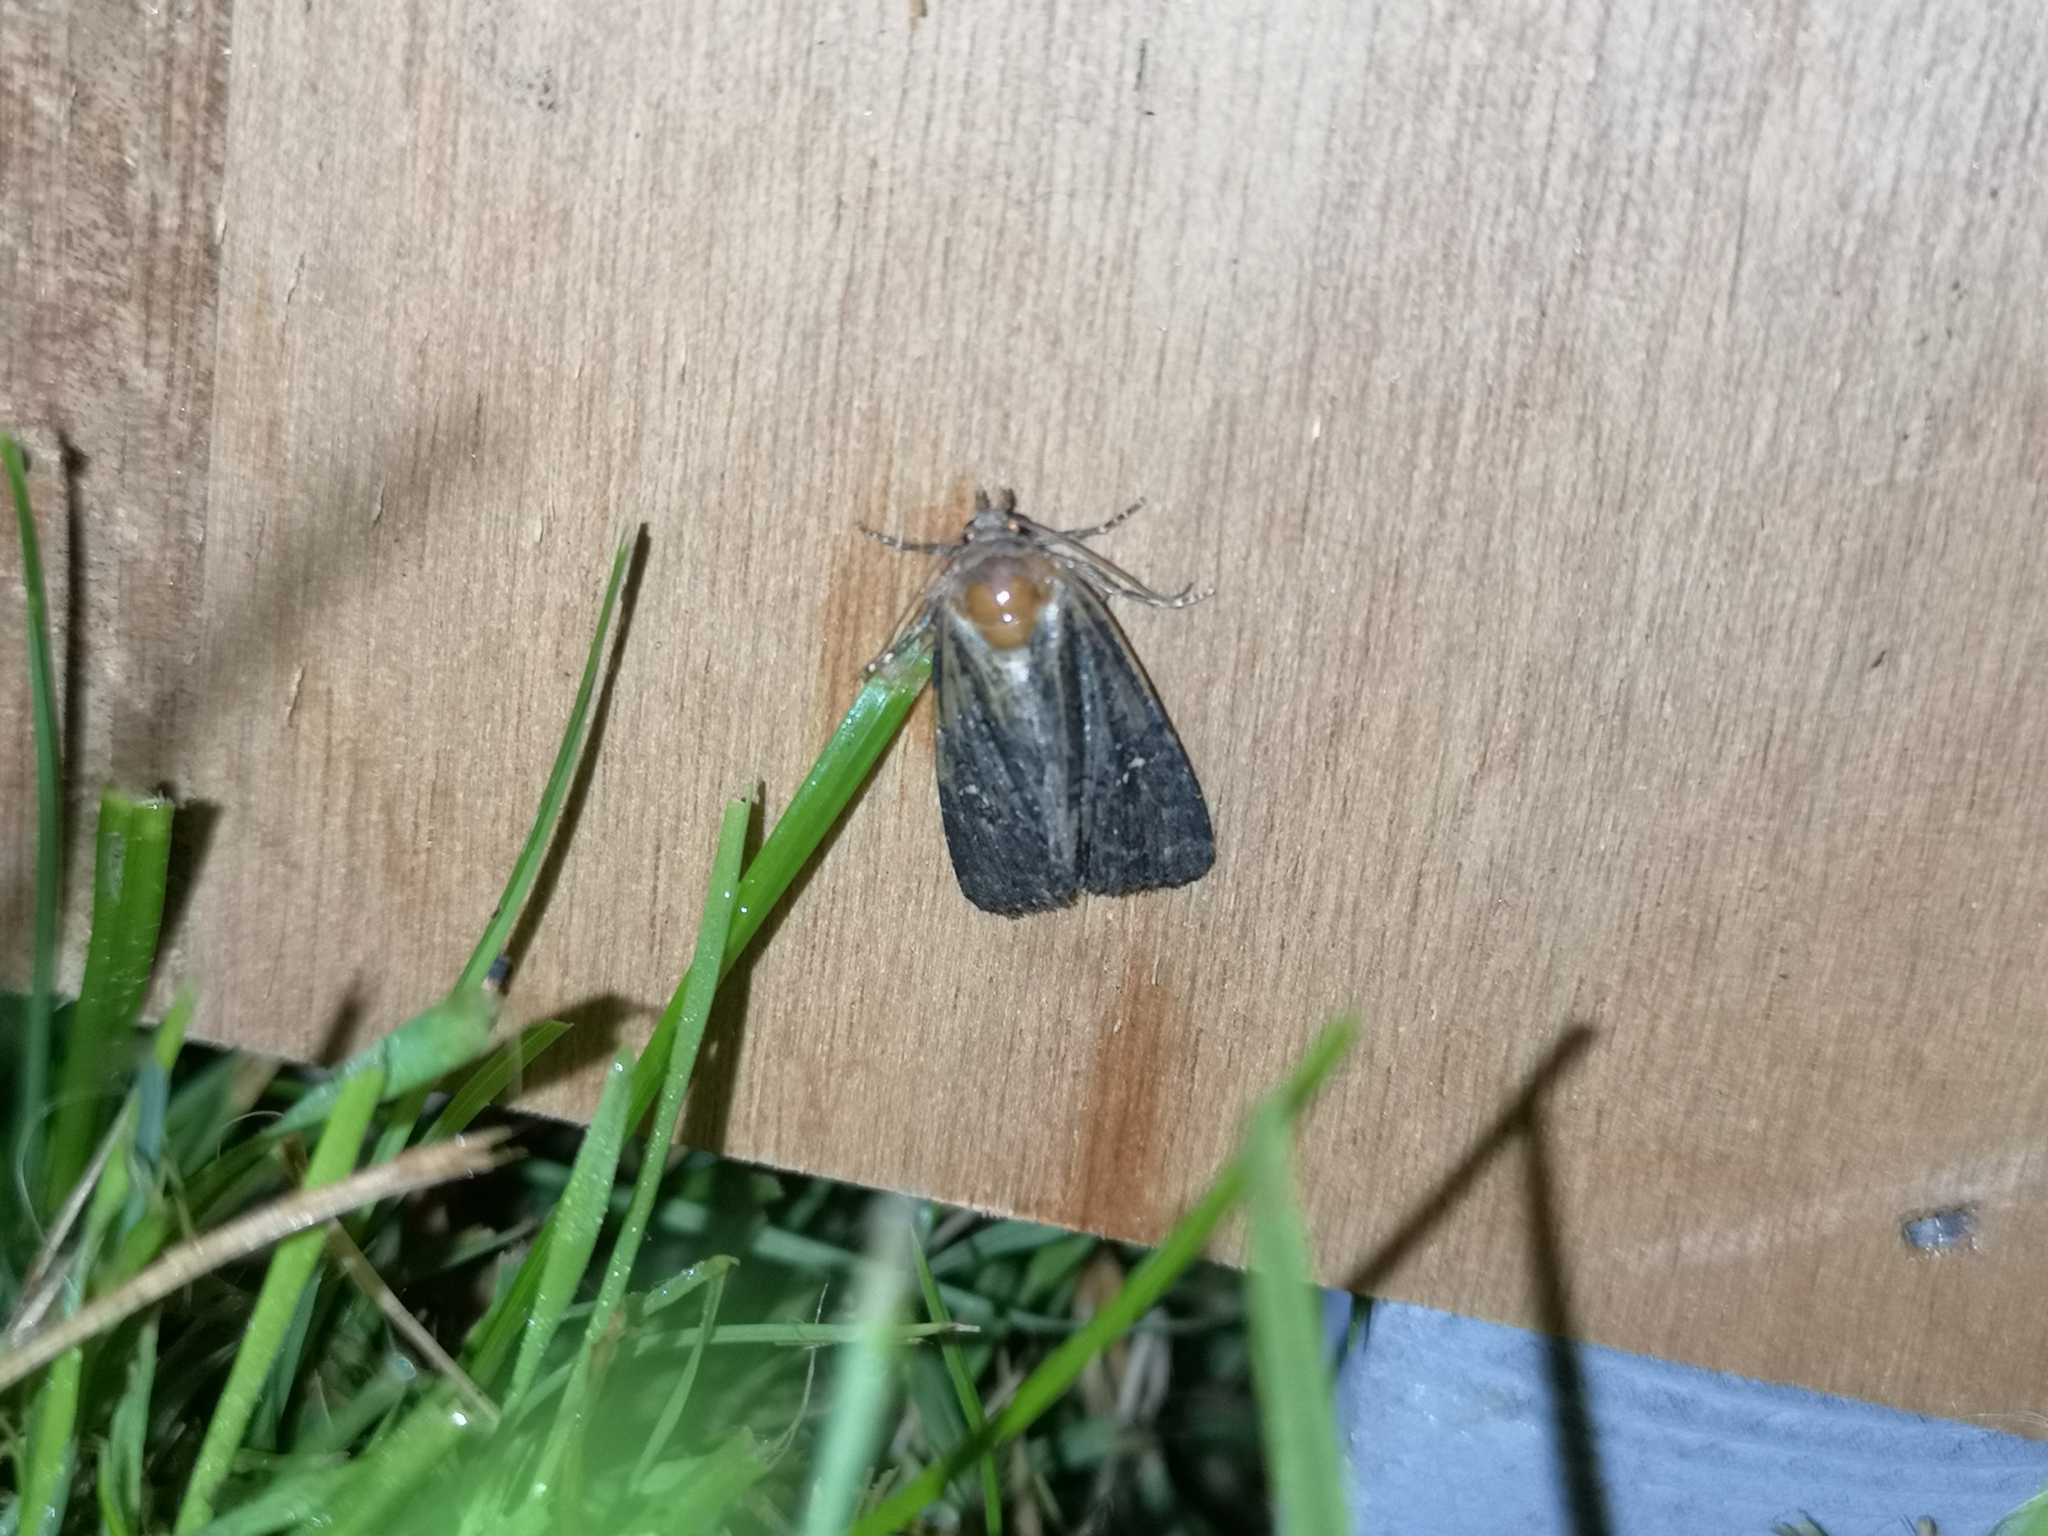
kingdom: Animalia
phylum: Arthropoda
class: Insecta
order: Lepidoptera
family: Noctuidae
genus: Mesapamea
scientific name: Mesapamea
